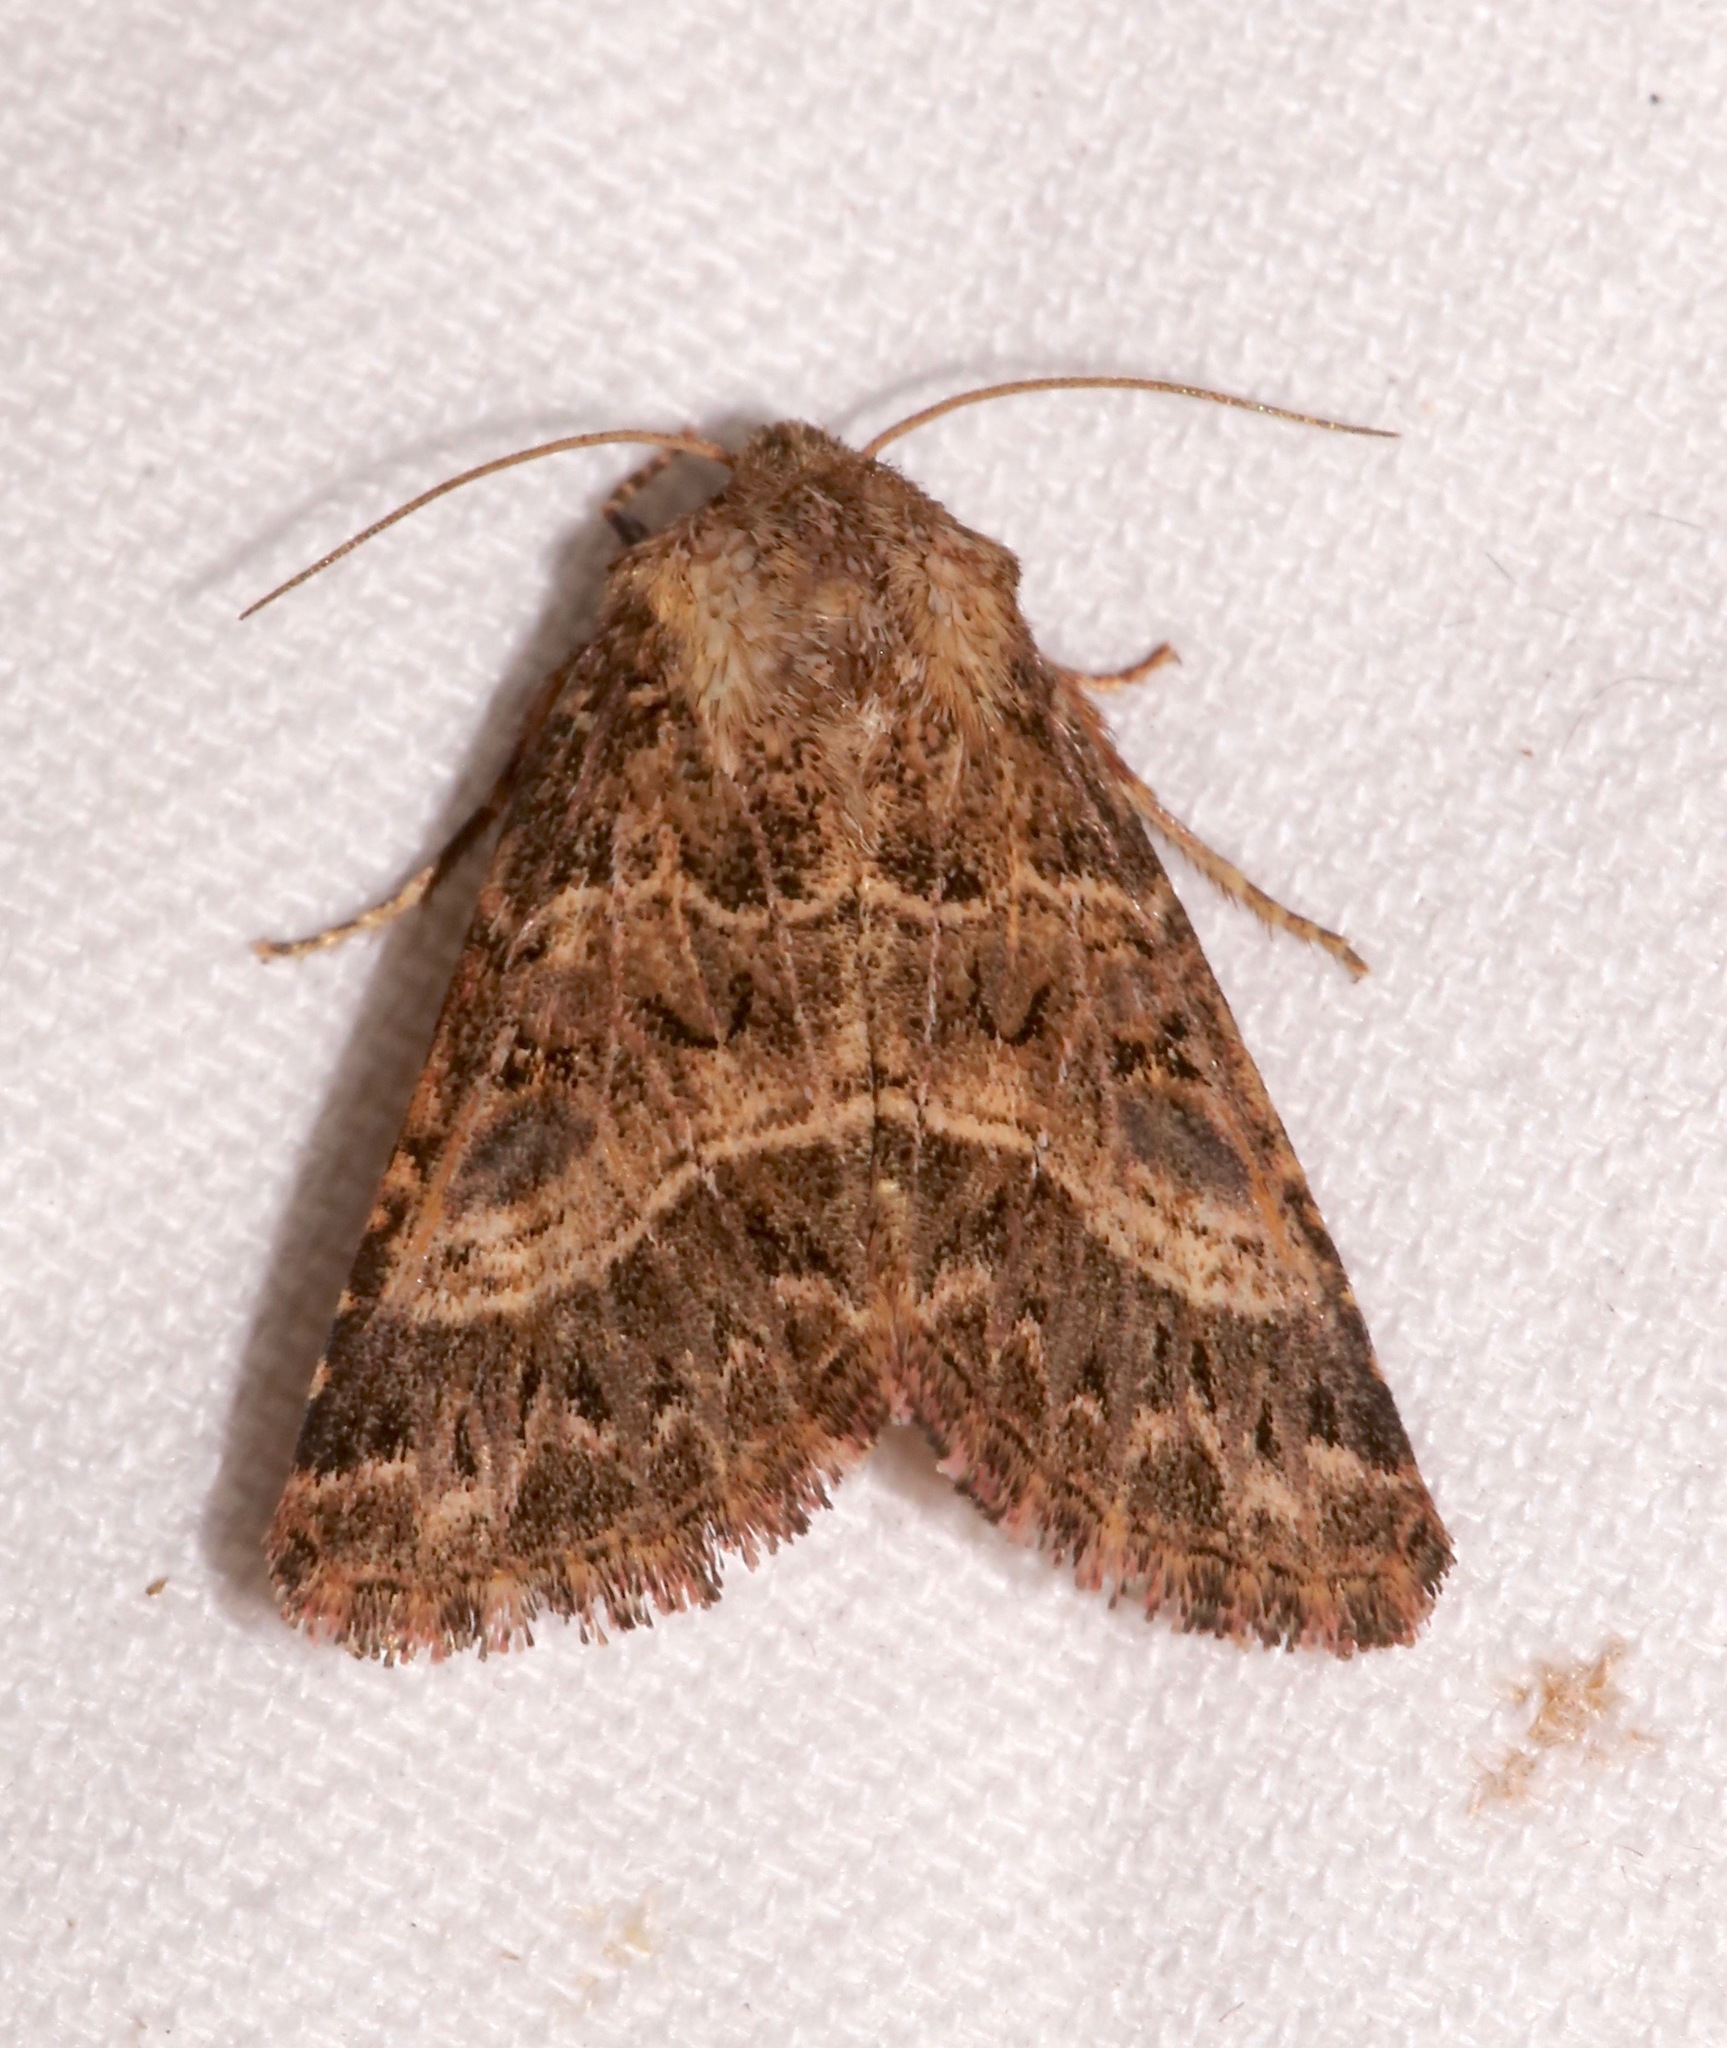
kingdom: Animalia
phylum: Arthropoda
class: Insecta
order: Lepidoptera
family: Noctuidae
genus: Schinia
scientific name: Schinia mexicana
